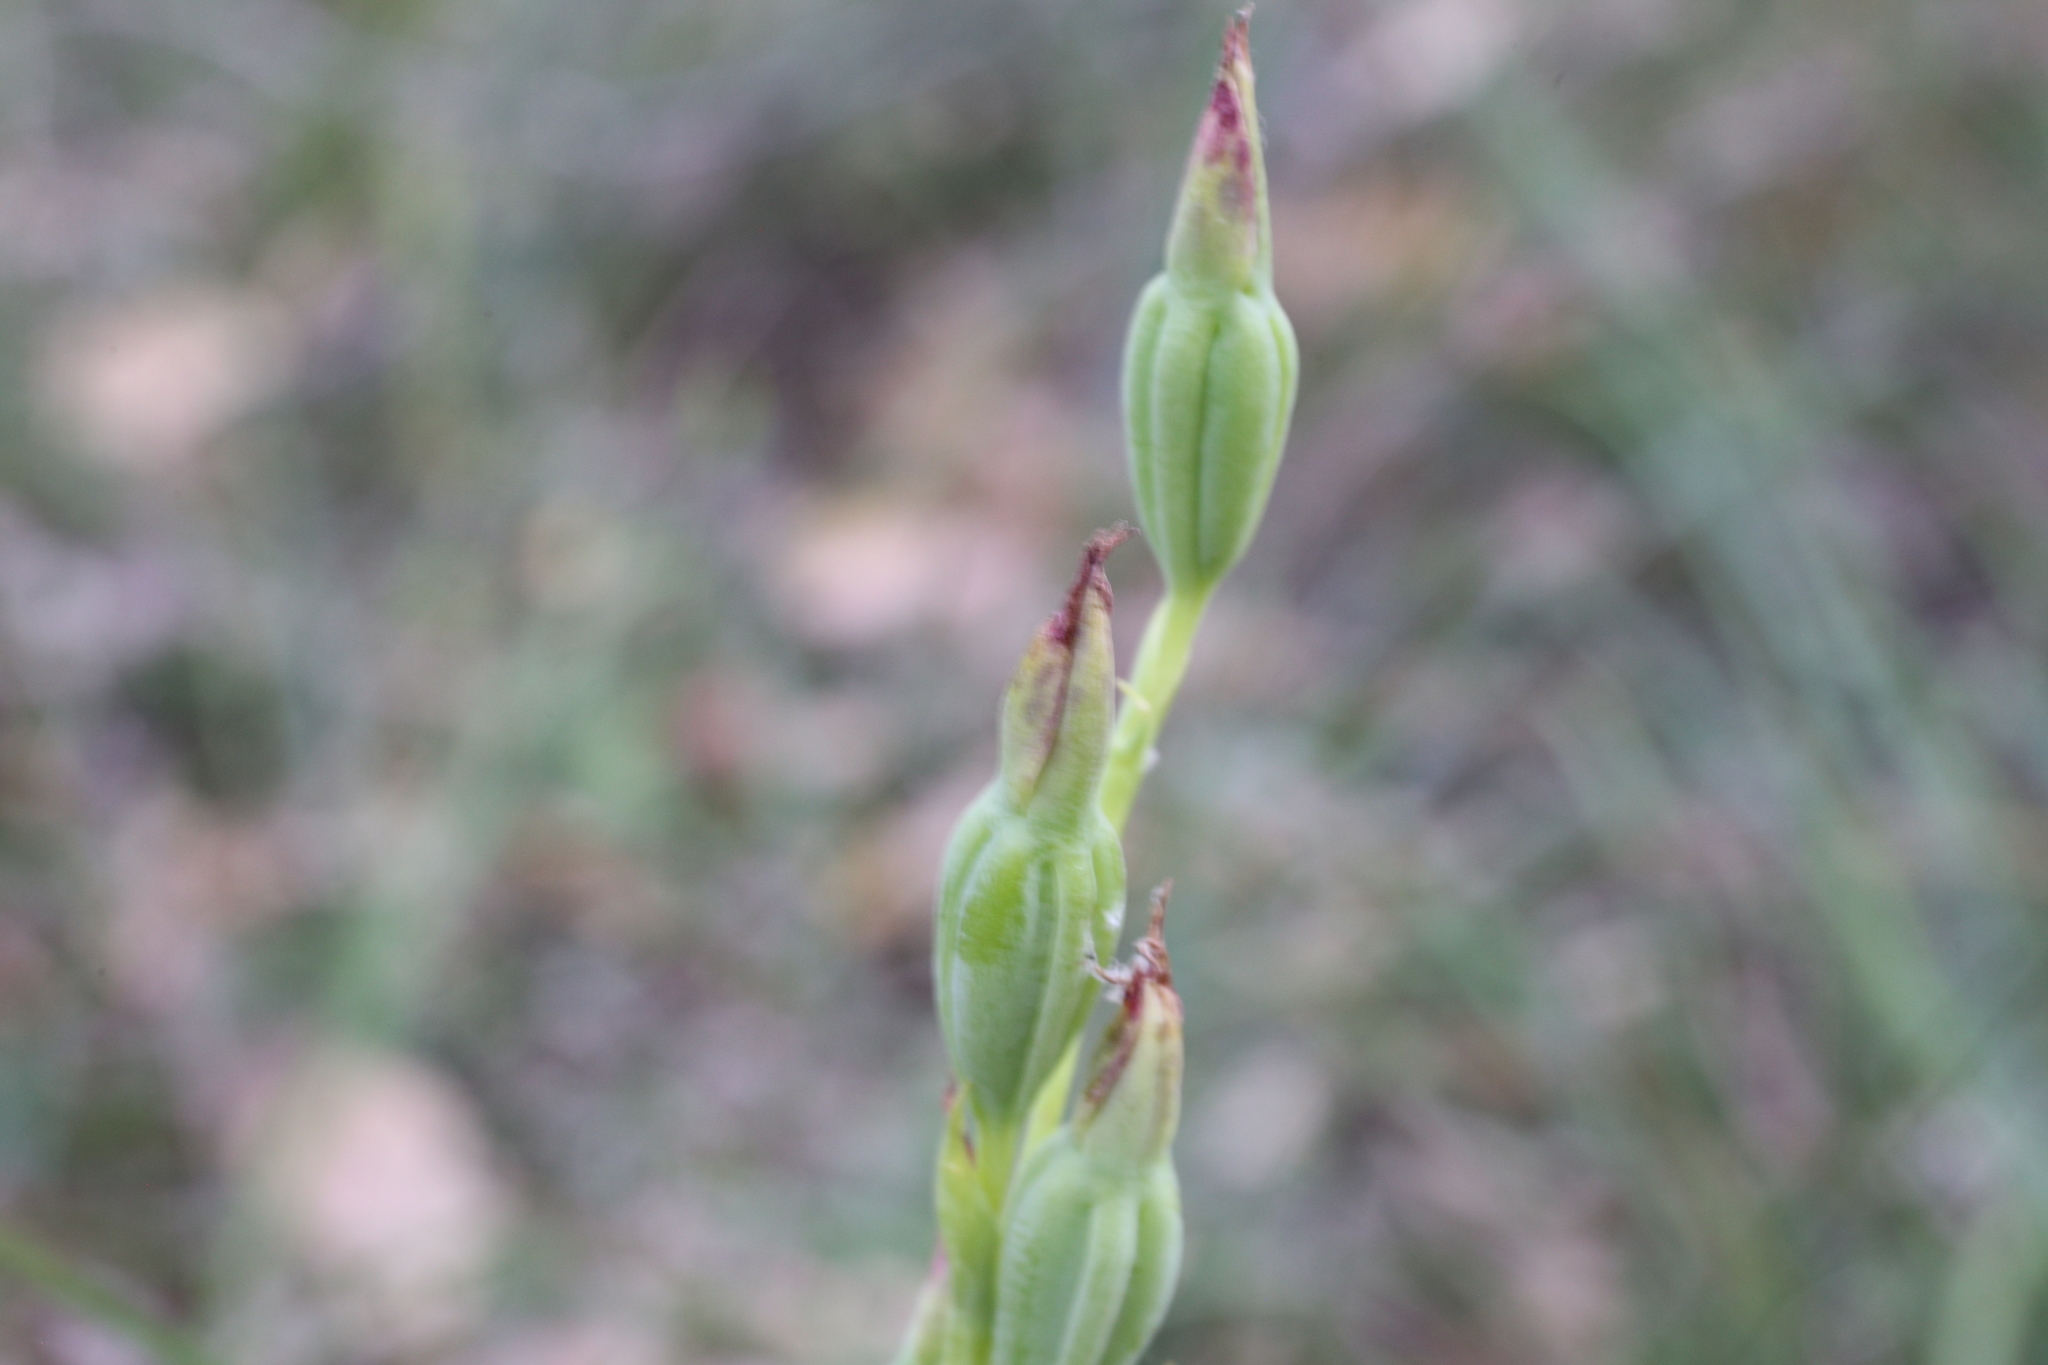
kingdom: Plantae
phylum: Tracheophyta
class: Liliopsida
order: Asparagales
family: Orchidaceae
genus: Thelymitra
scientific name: Thelymitra benthamiana
